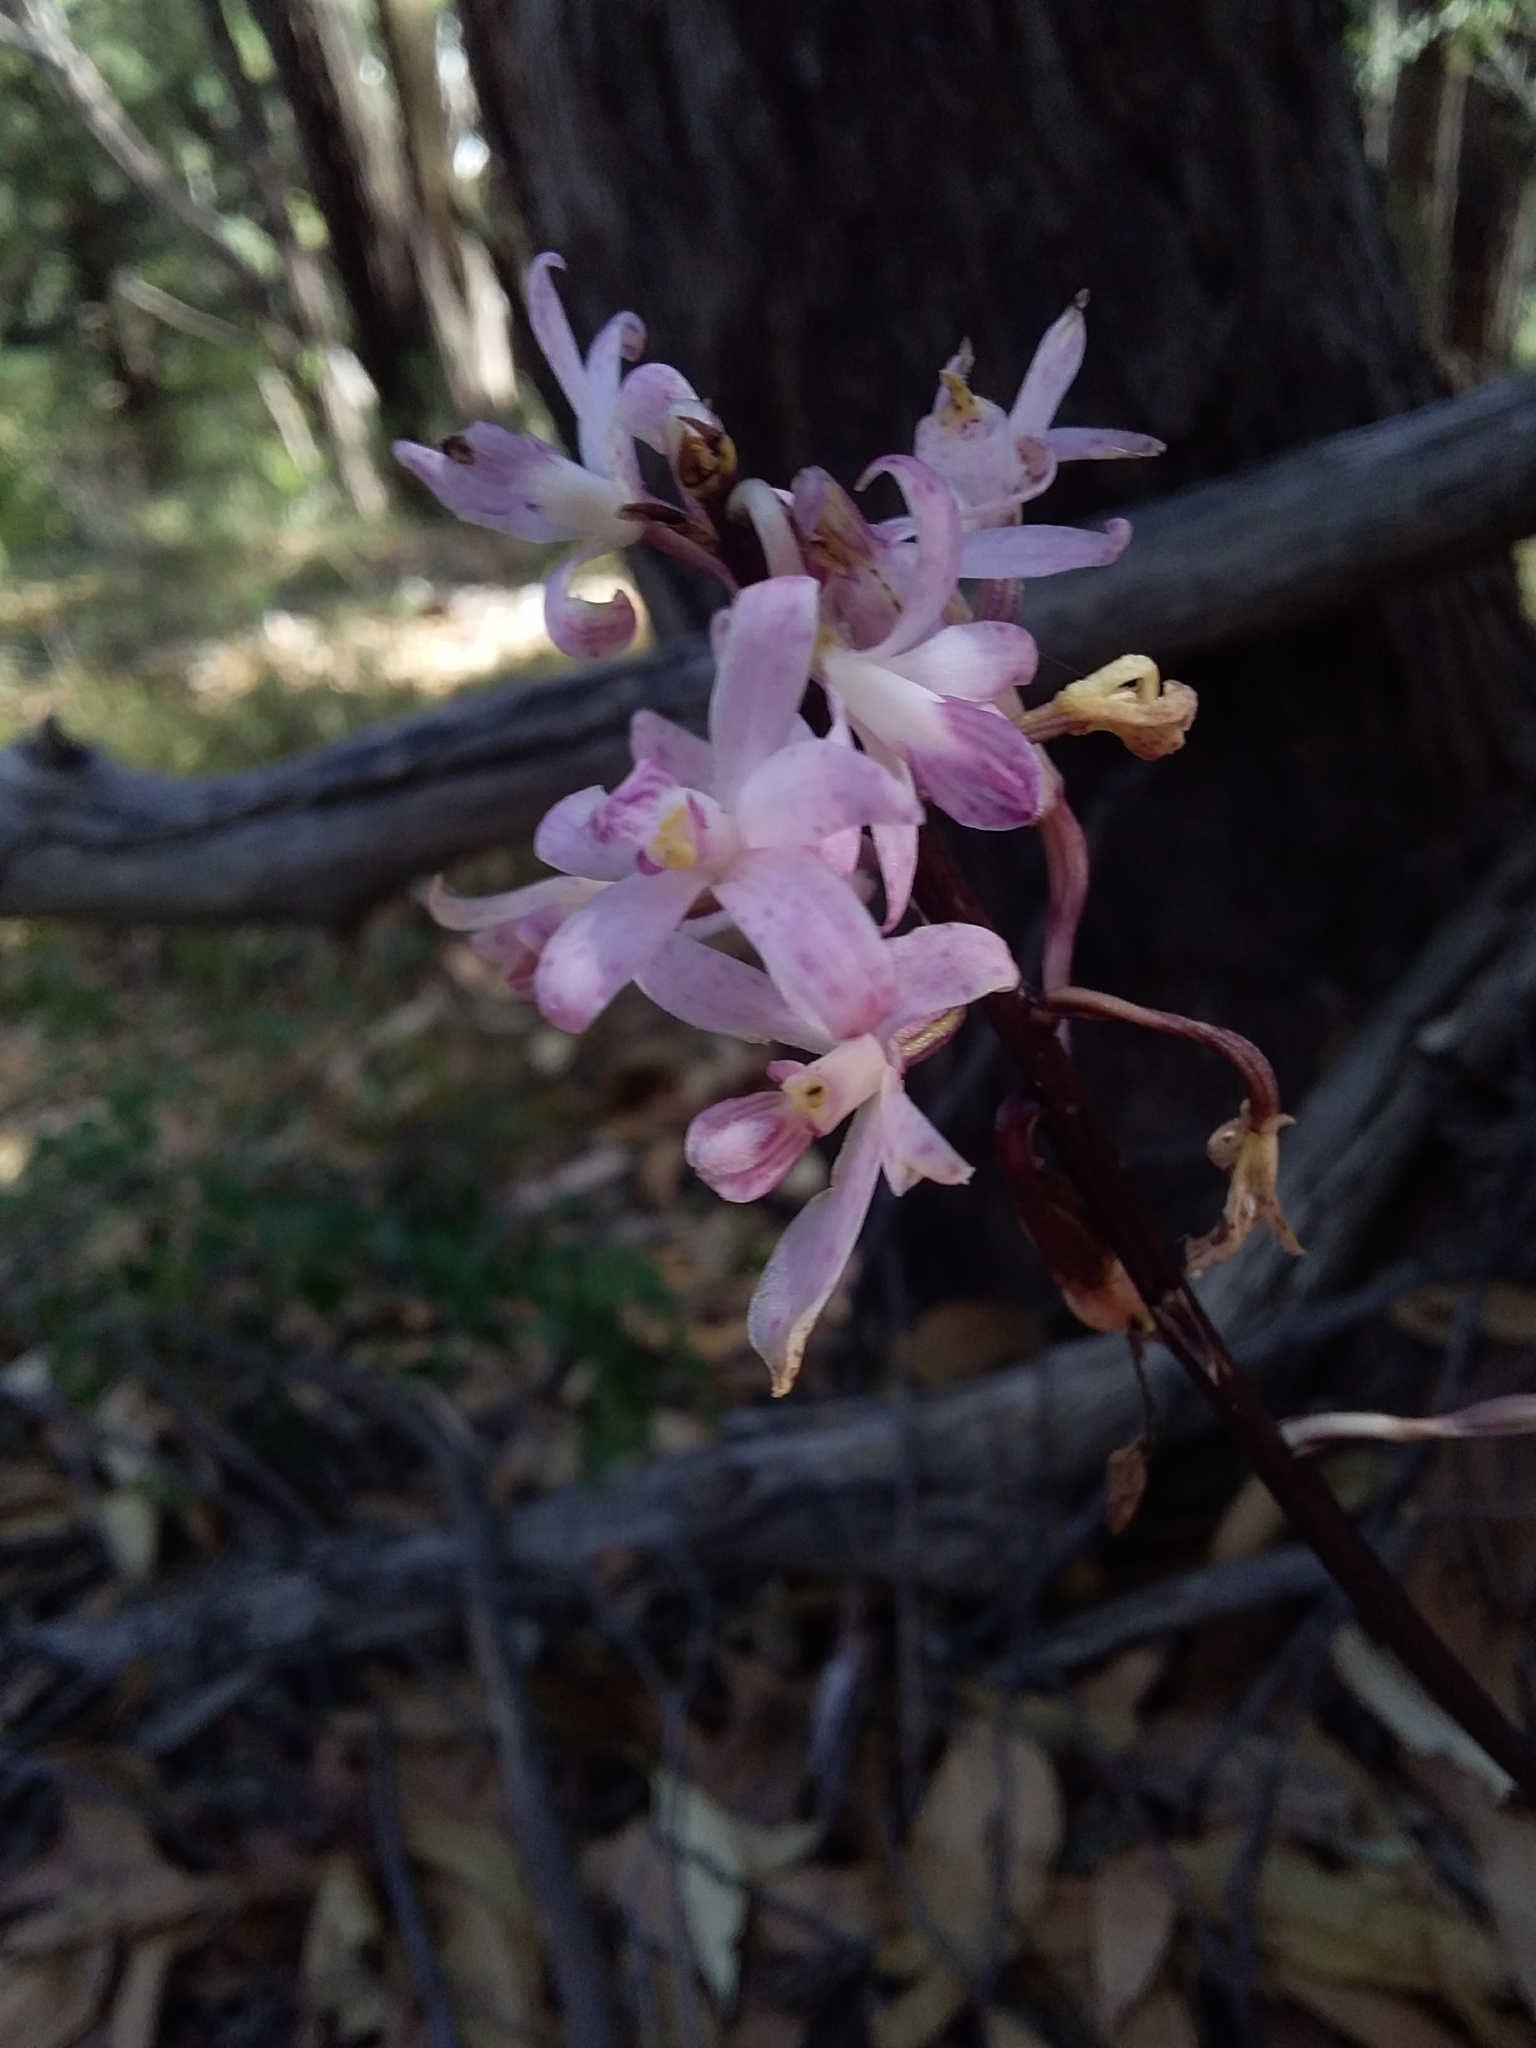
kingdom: Plantae
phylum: Tracheophyta
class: Liliopsida
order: Asparagales
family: Orchidaceae
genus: Dipodium
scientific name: Dipodium roseum
